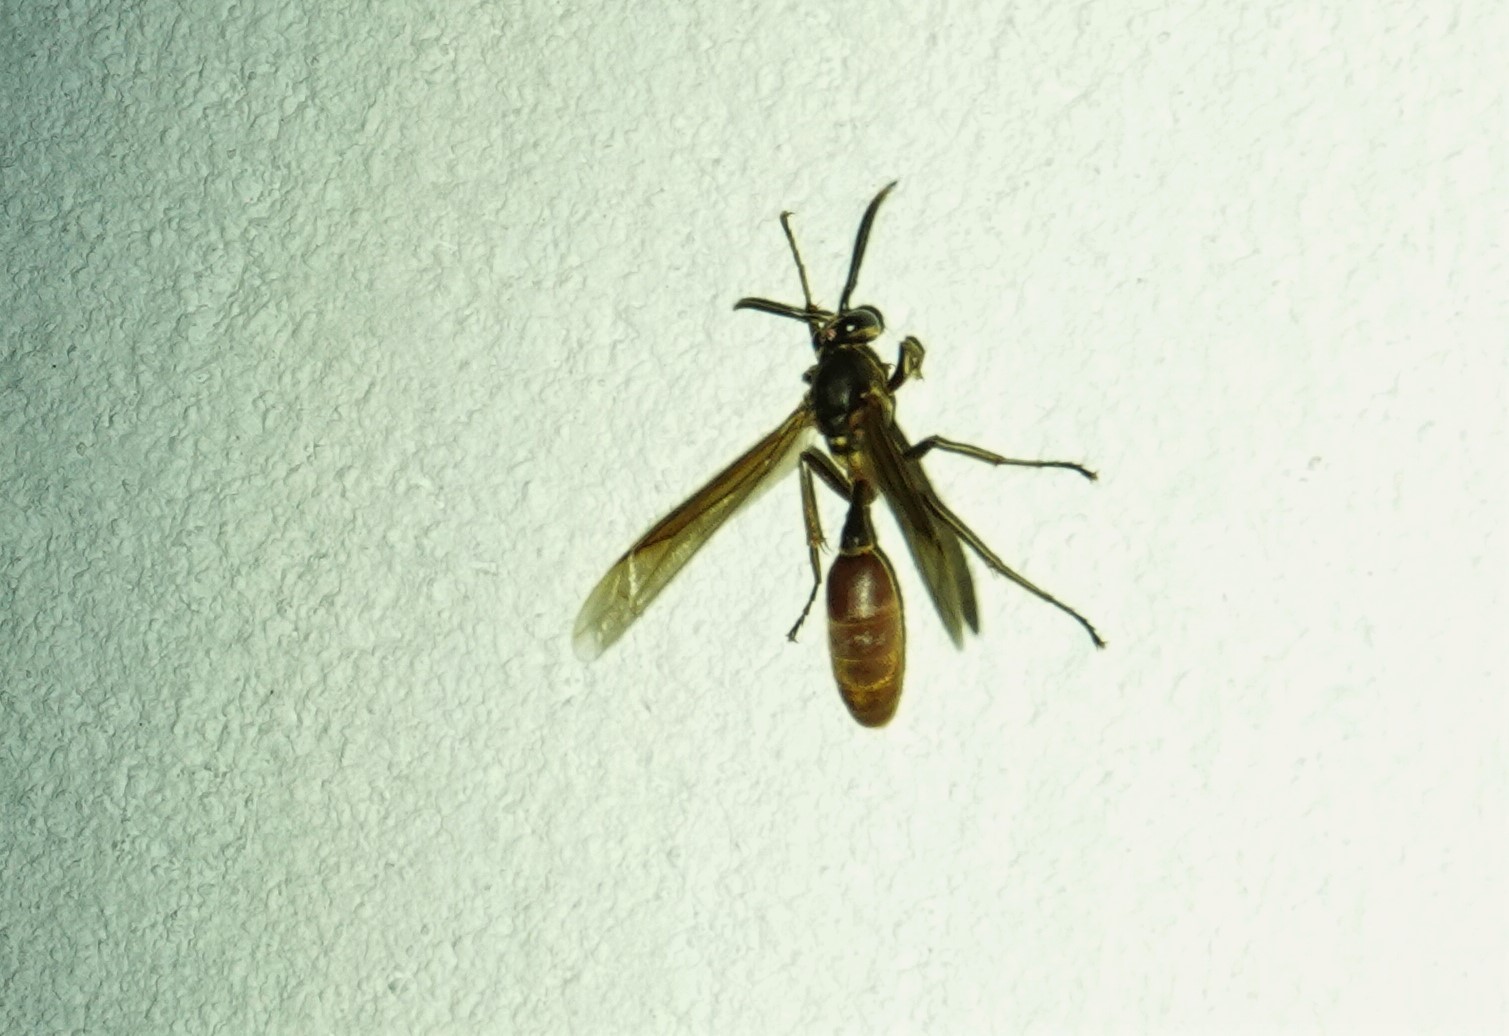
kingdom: Animalia
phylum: Arthropoda
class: Insecta
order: Hymenoptera
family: Vespidae
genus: Apoica
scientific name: Apoica thoracica
